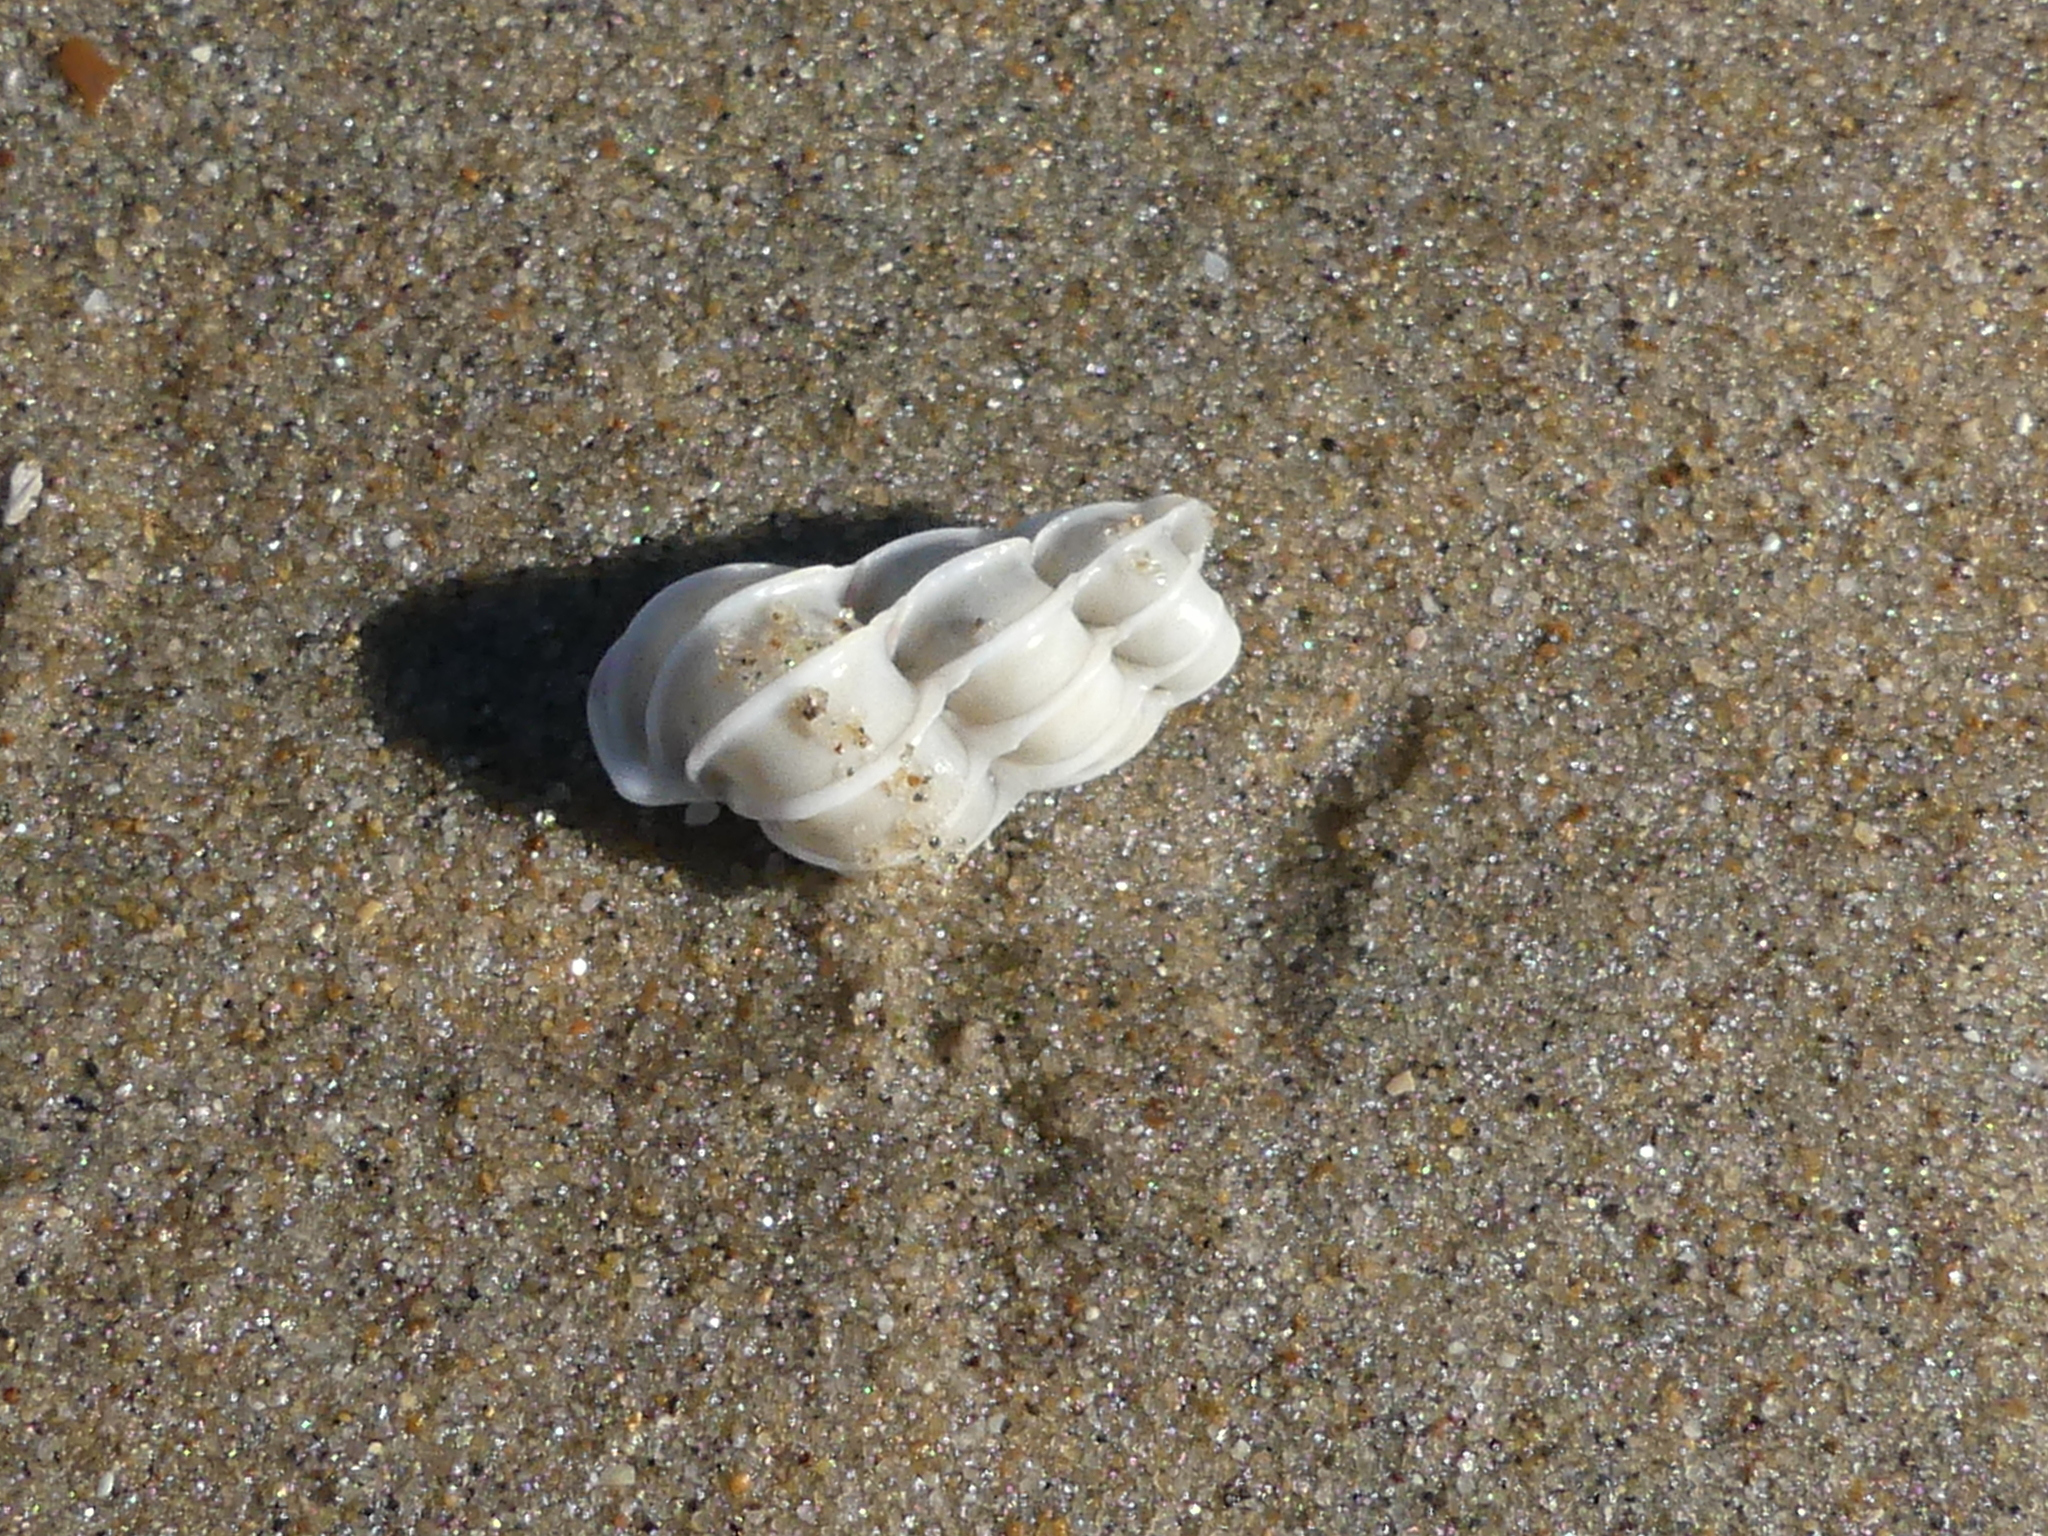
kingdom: Animalia
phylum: Mollusca
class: Gastropoda
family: Epitoniidae
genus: Epitonium
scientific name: Epitonium clathrus
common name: Common wentletrap
